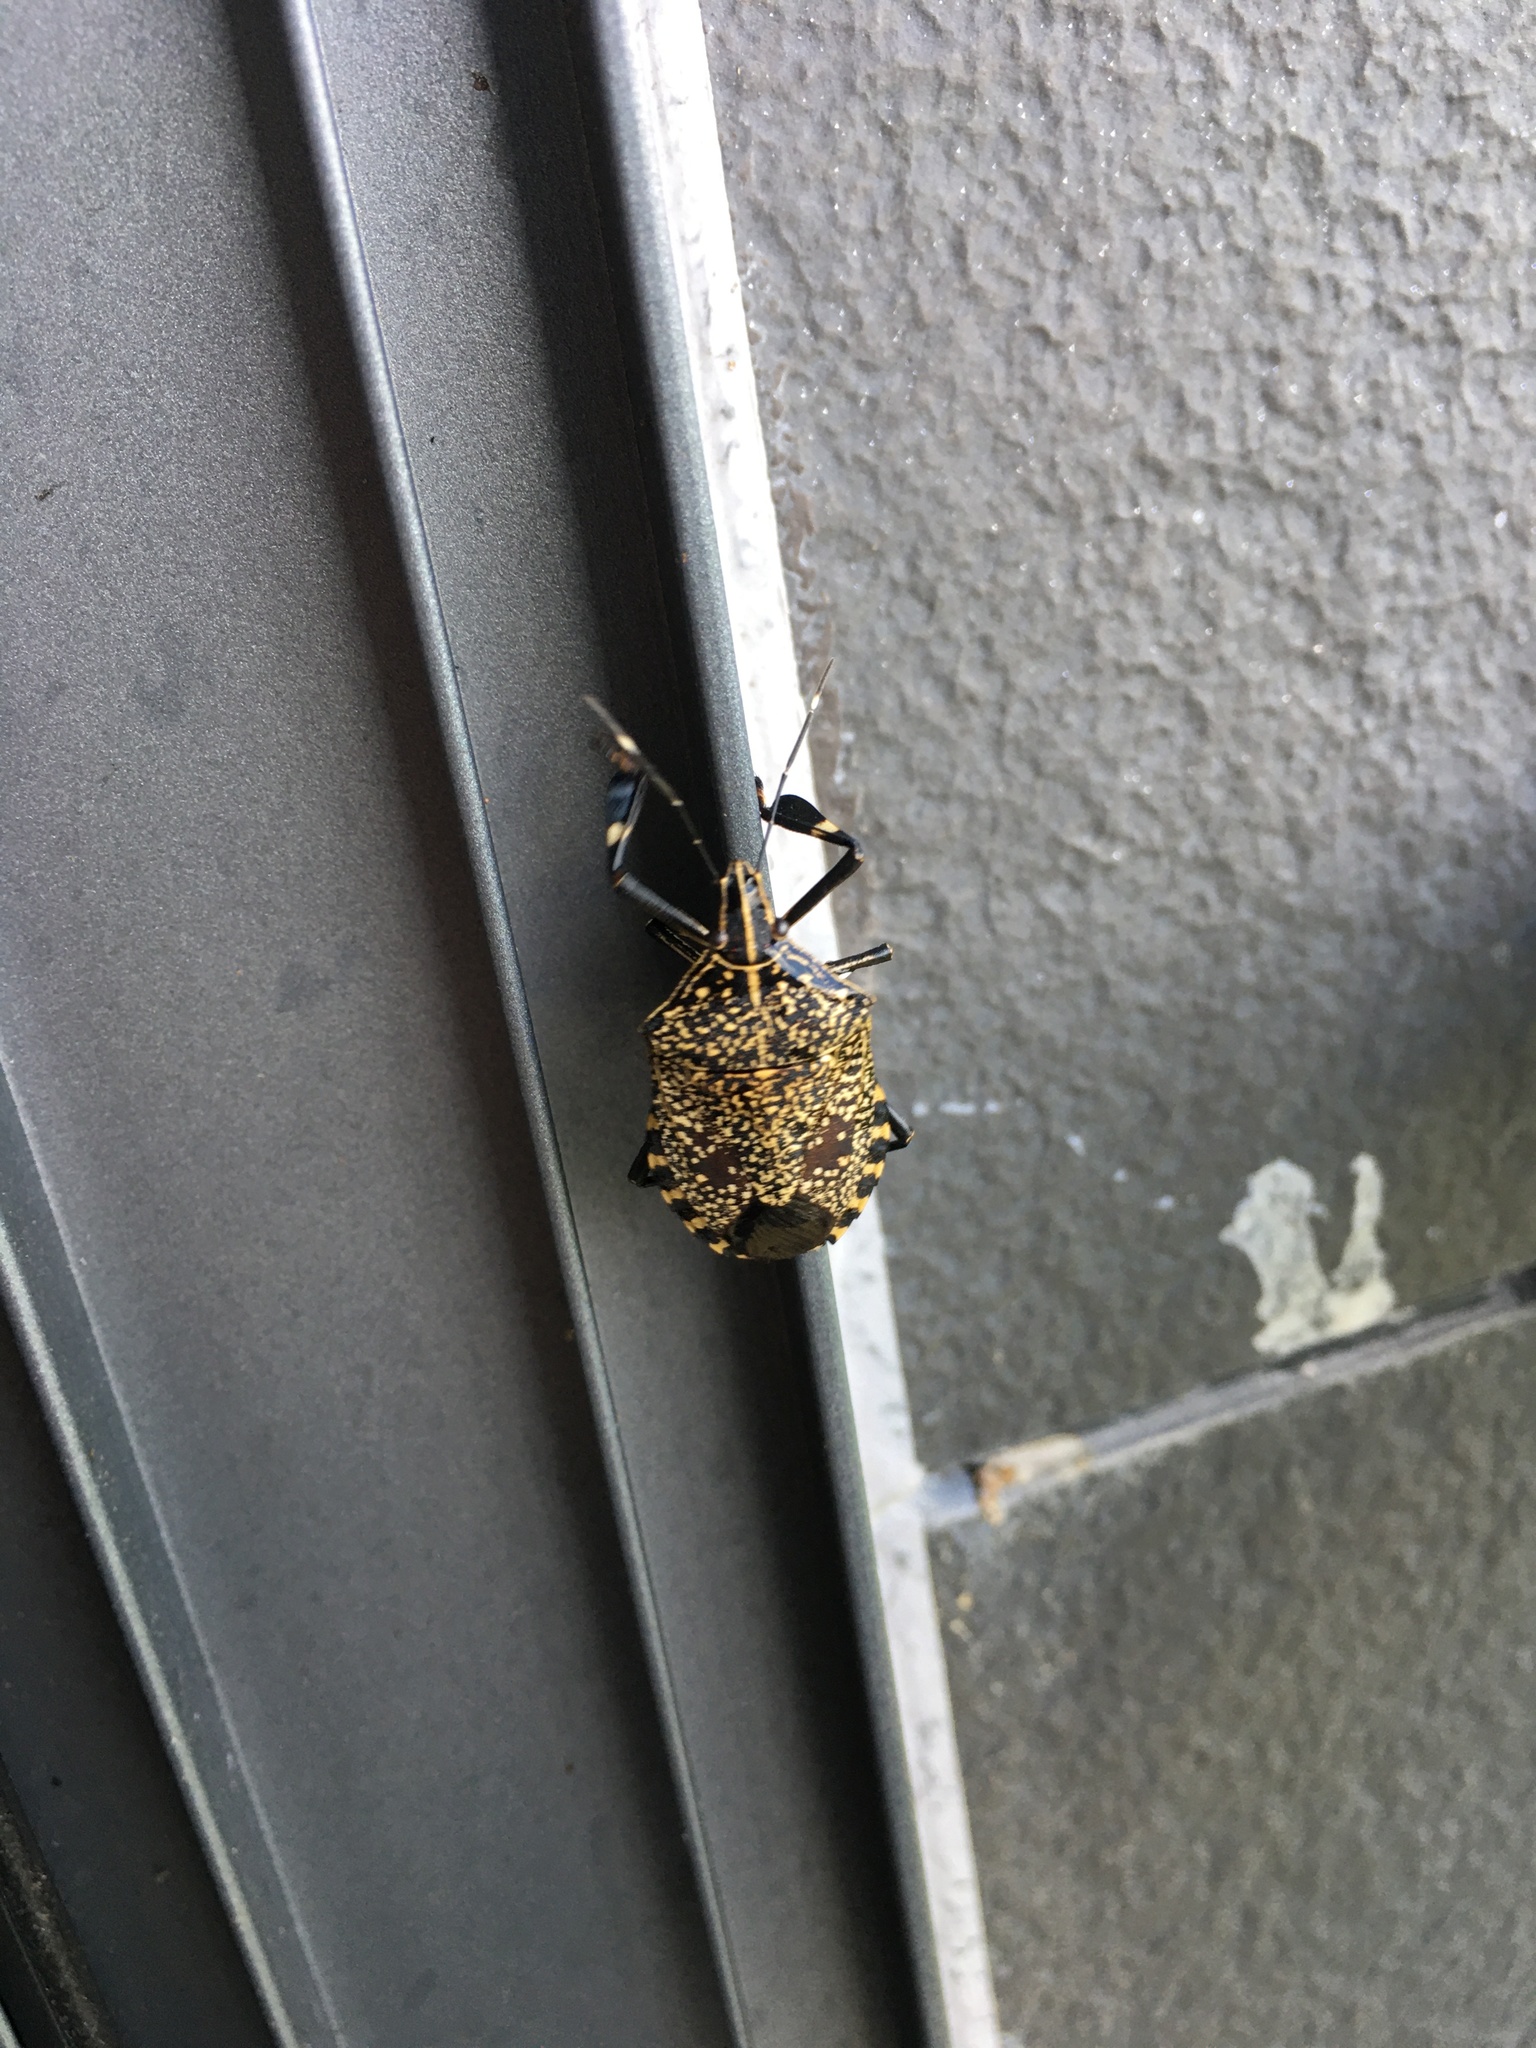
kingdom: Animalia
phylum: Arthropoda
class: Insecta
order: Hemiptera
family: Pentatomidae
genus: Erthesina
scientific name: Erthesina fullo
